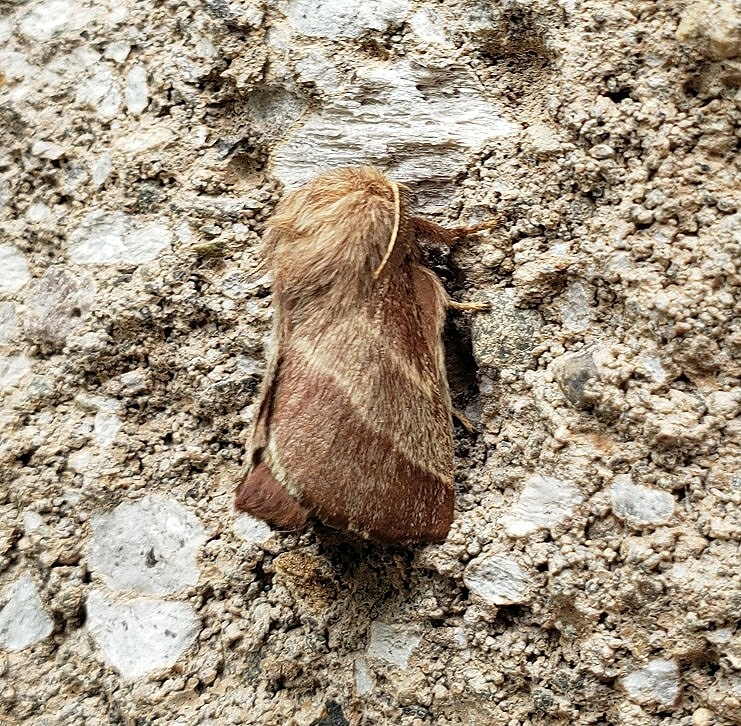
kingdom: Animalia
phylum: Arthropoda
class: Insecta
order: Lepidoptera
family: Lasiocampidae
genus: Malacosoma
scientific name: Malacosoma americana
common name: Eastern tent caterpillar moth
